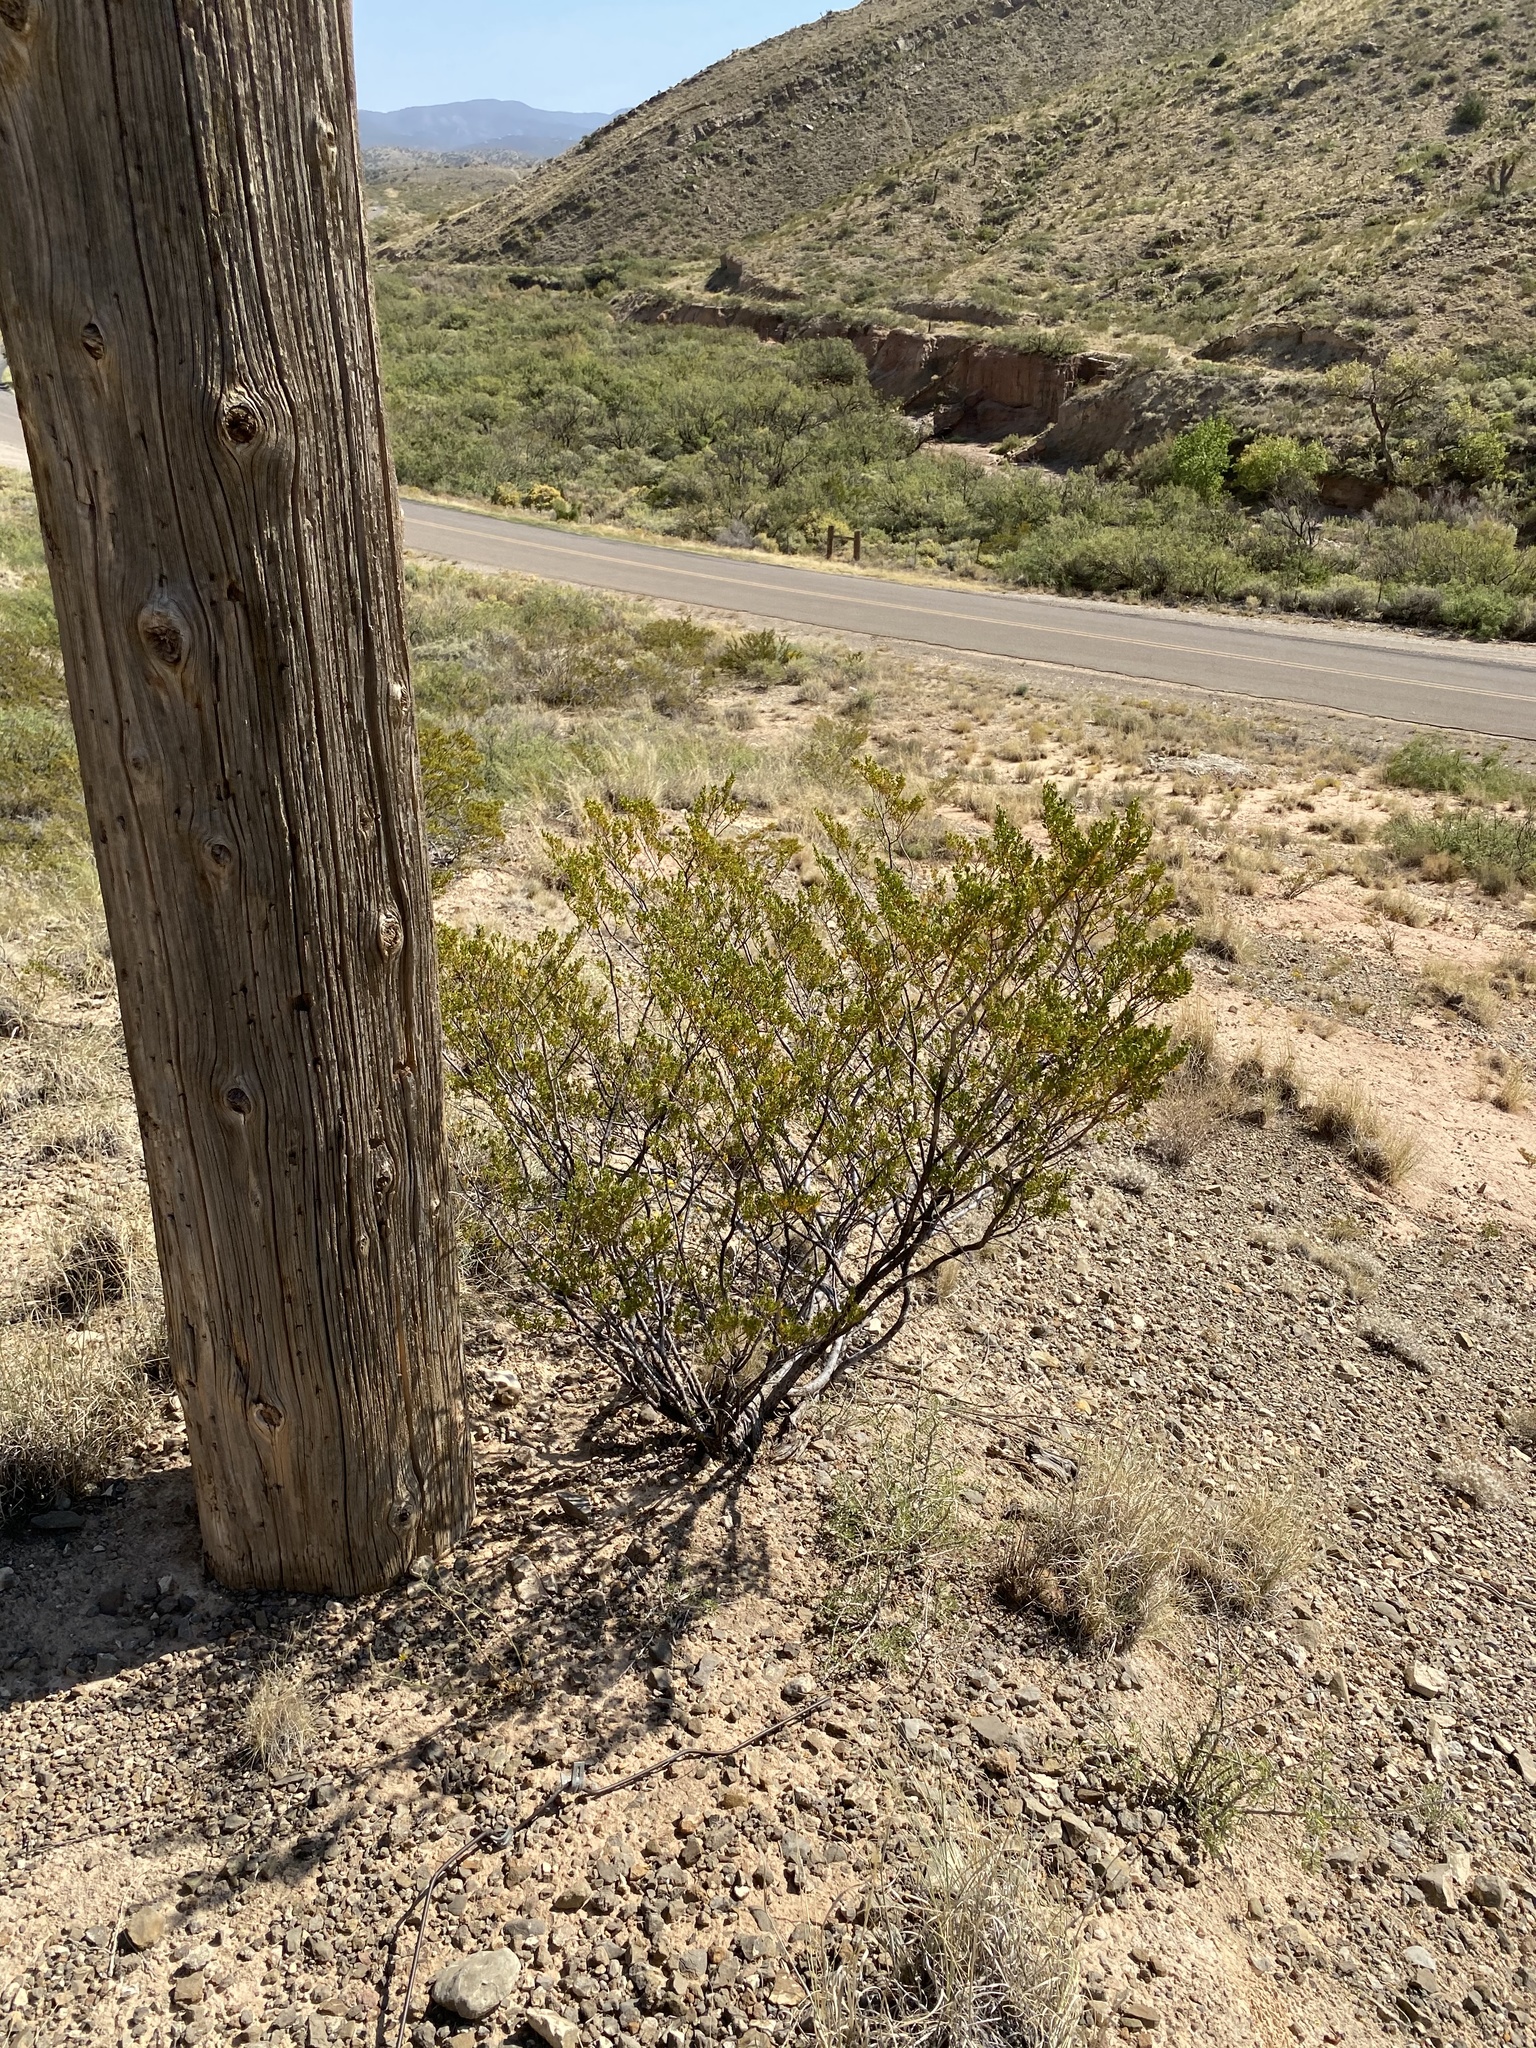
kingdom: Plantae
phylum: Tracheophyta
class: Magnoliopsida
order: Zygophyllales
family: Zygophyllaceae
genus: Larrea
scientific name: Larrea tridentata
